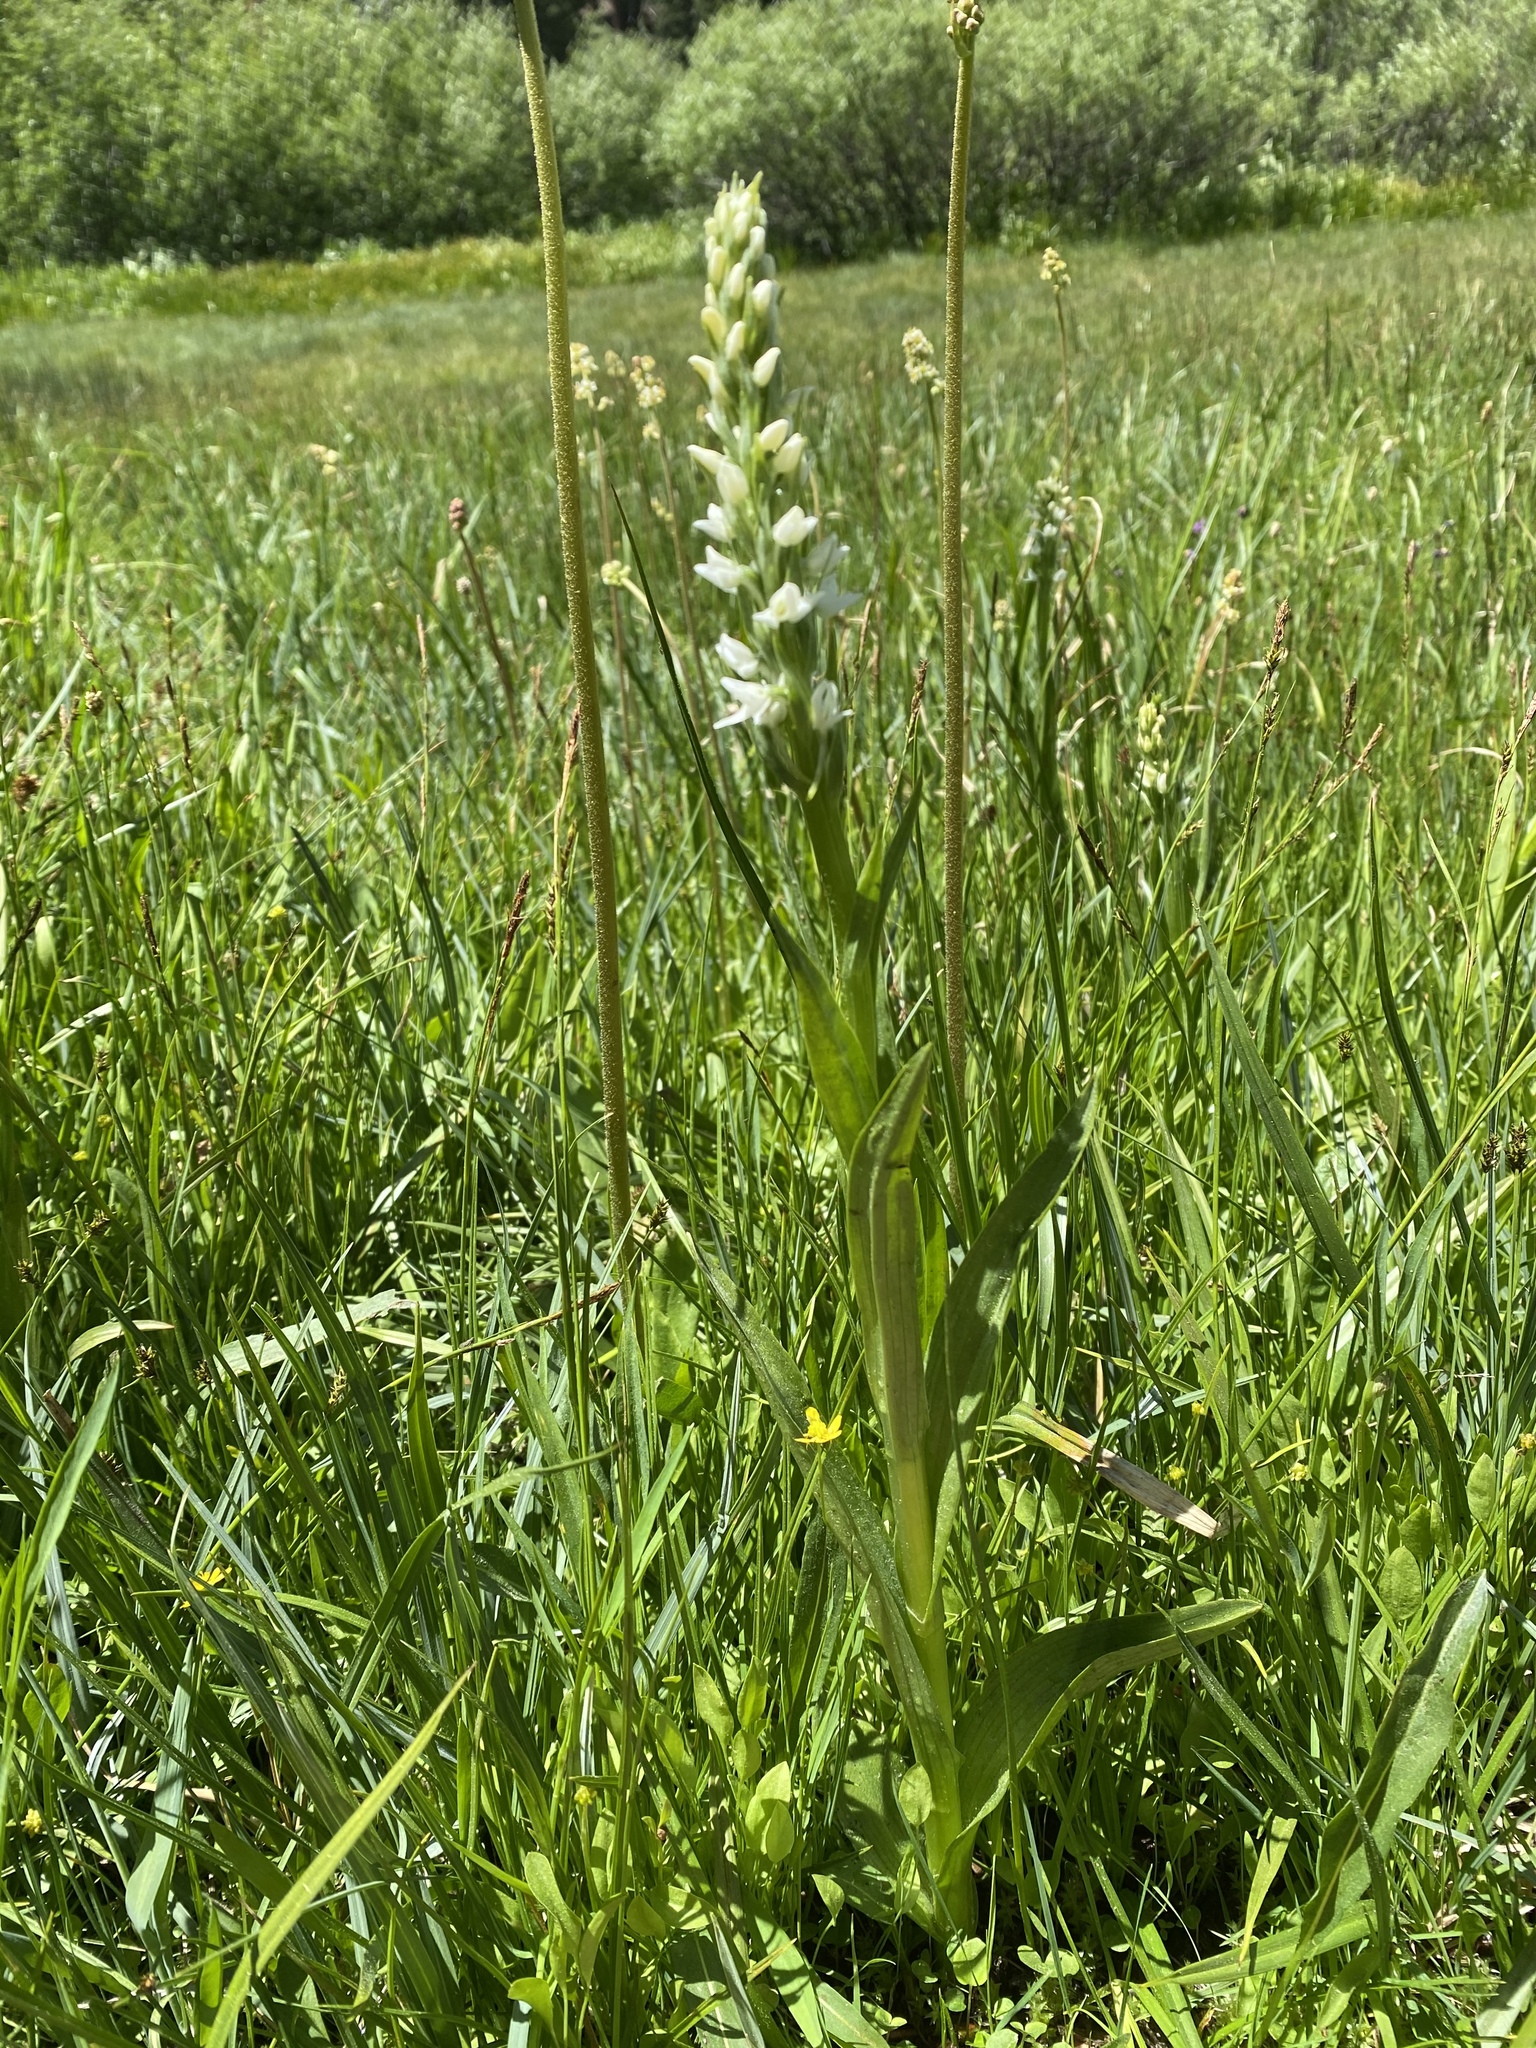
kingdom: Plantae
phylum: Tracheophyta
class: Liliopsida
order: Asparagales
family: Orchidaceae
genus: Platanthera
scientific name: Platanthera dilatata
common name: Bog candles
